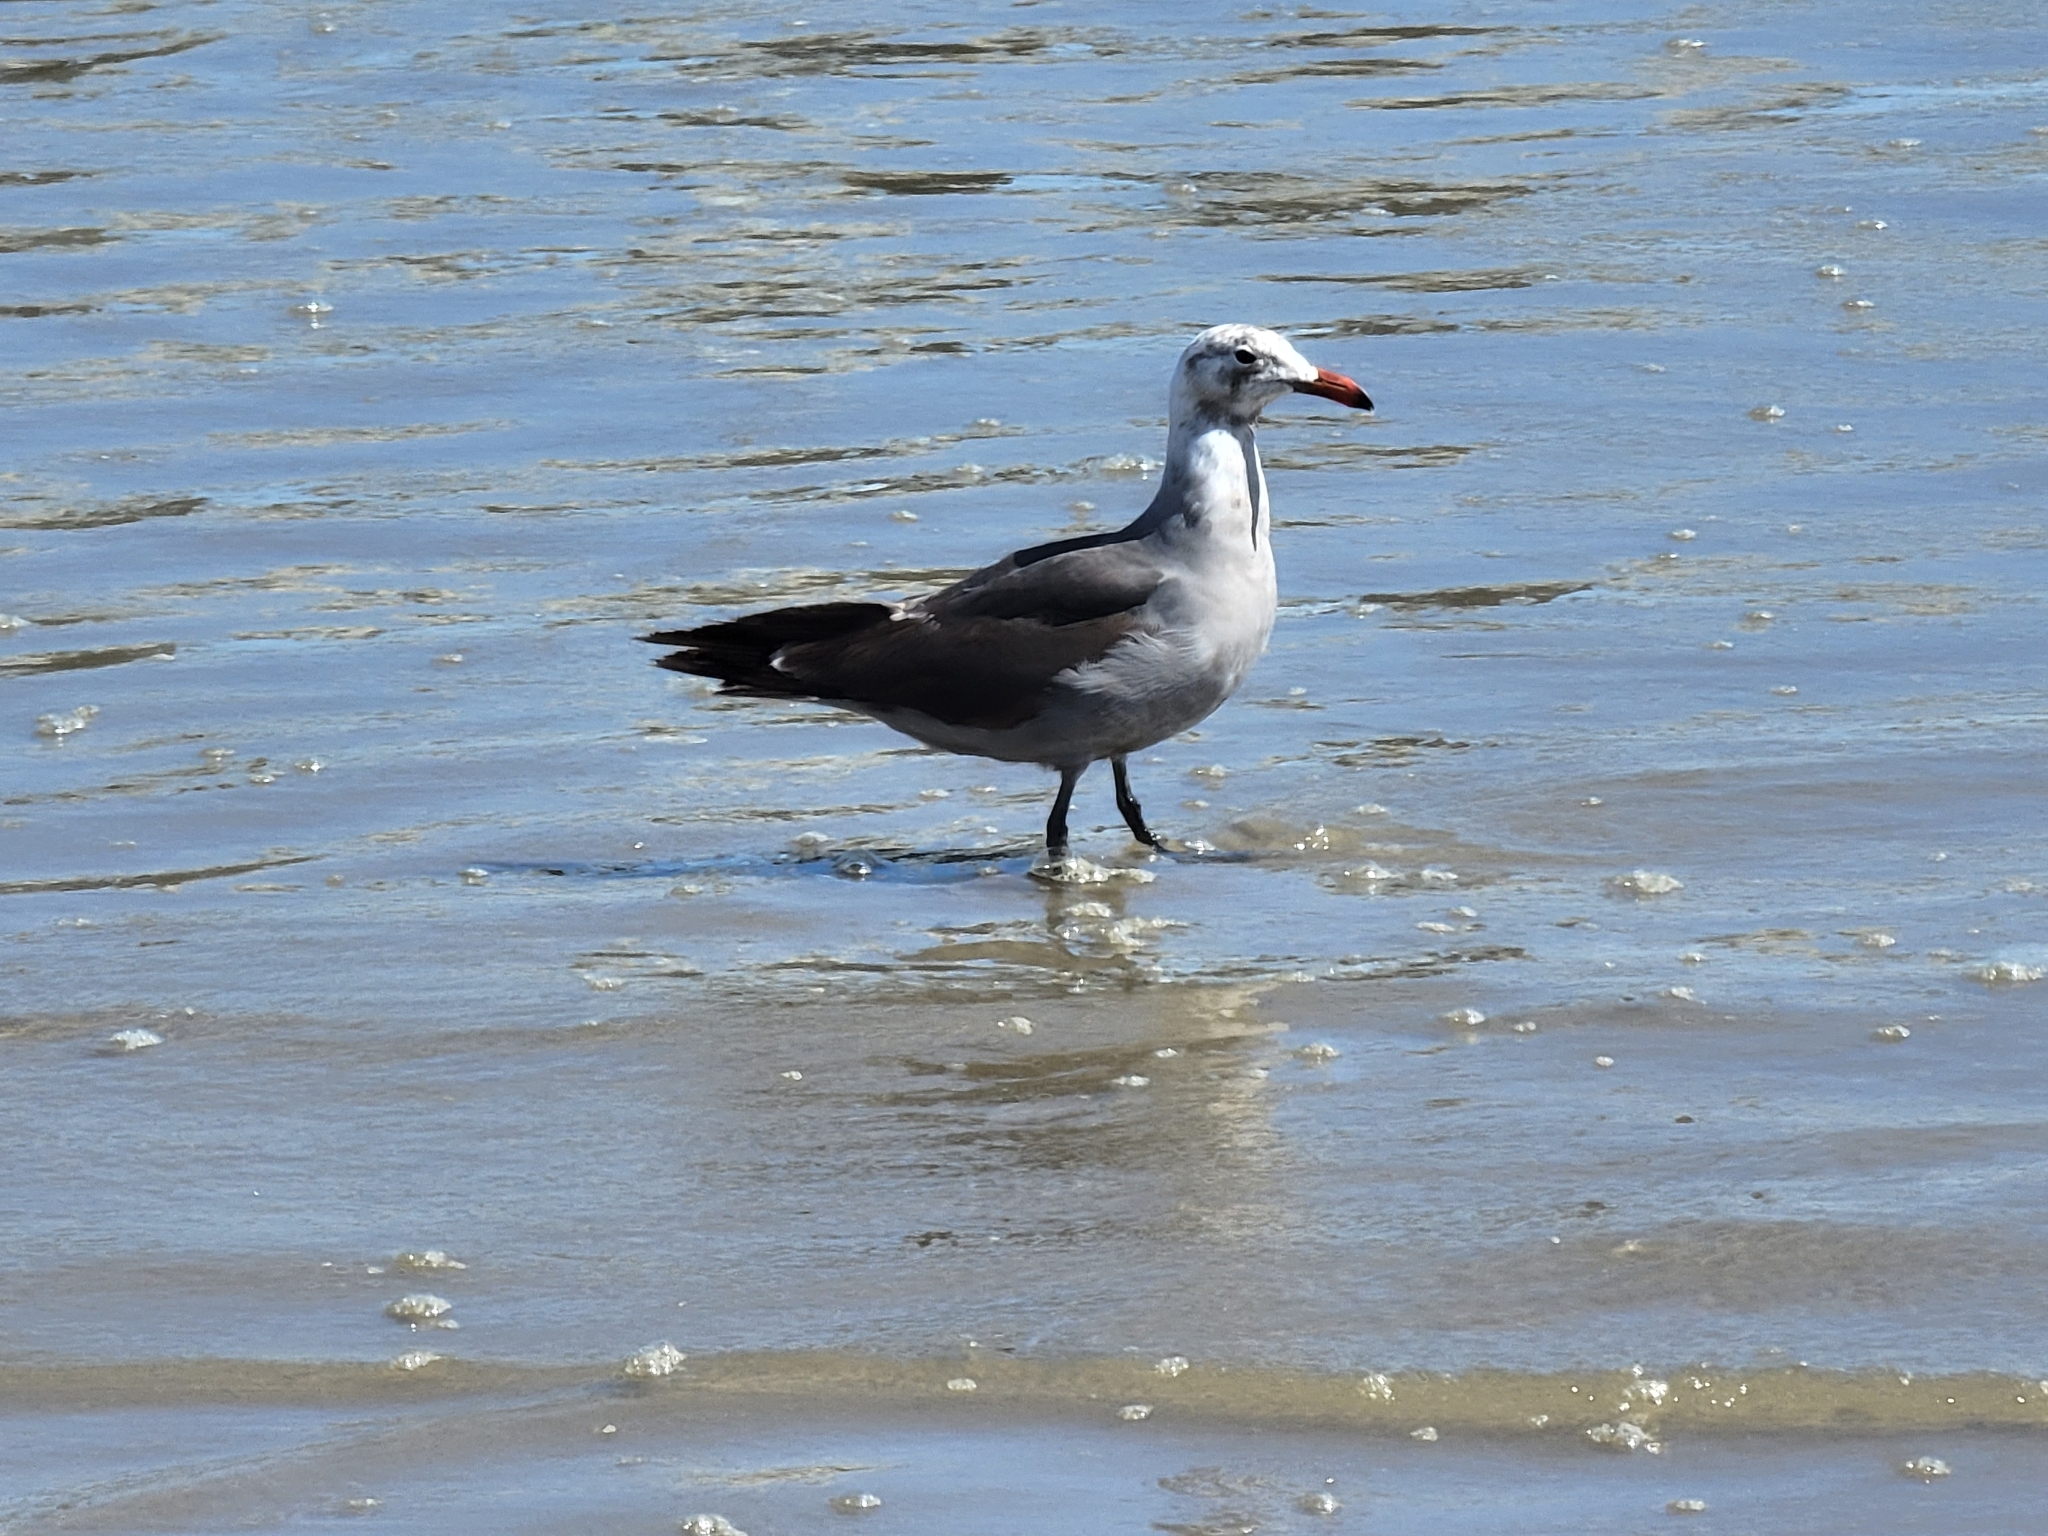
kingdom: Animalia
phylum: Chordata
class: Aves
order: Charadriiformes
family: Laridae
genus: Larus
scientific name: Larus heermanni
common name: Heermann's gull
